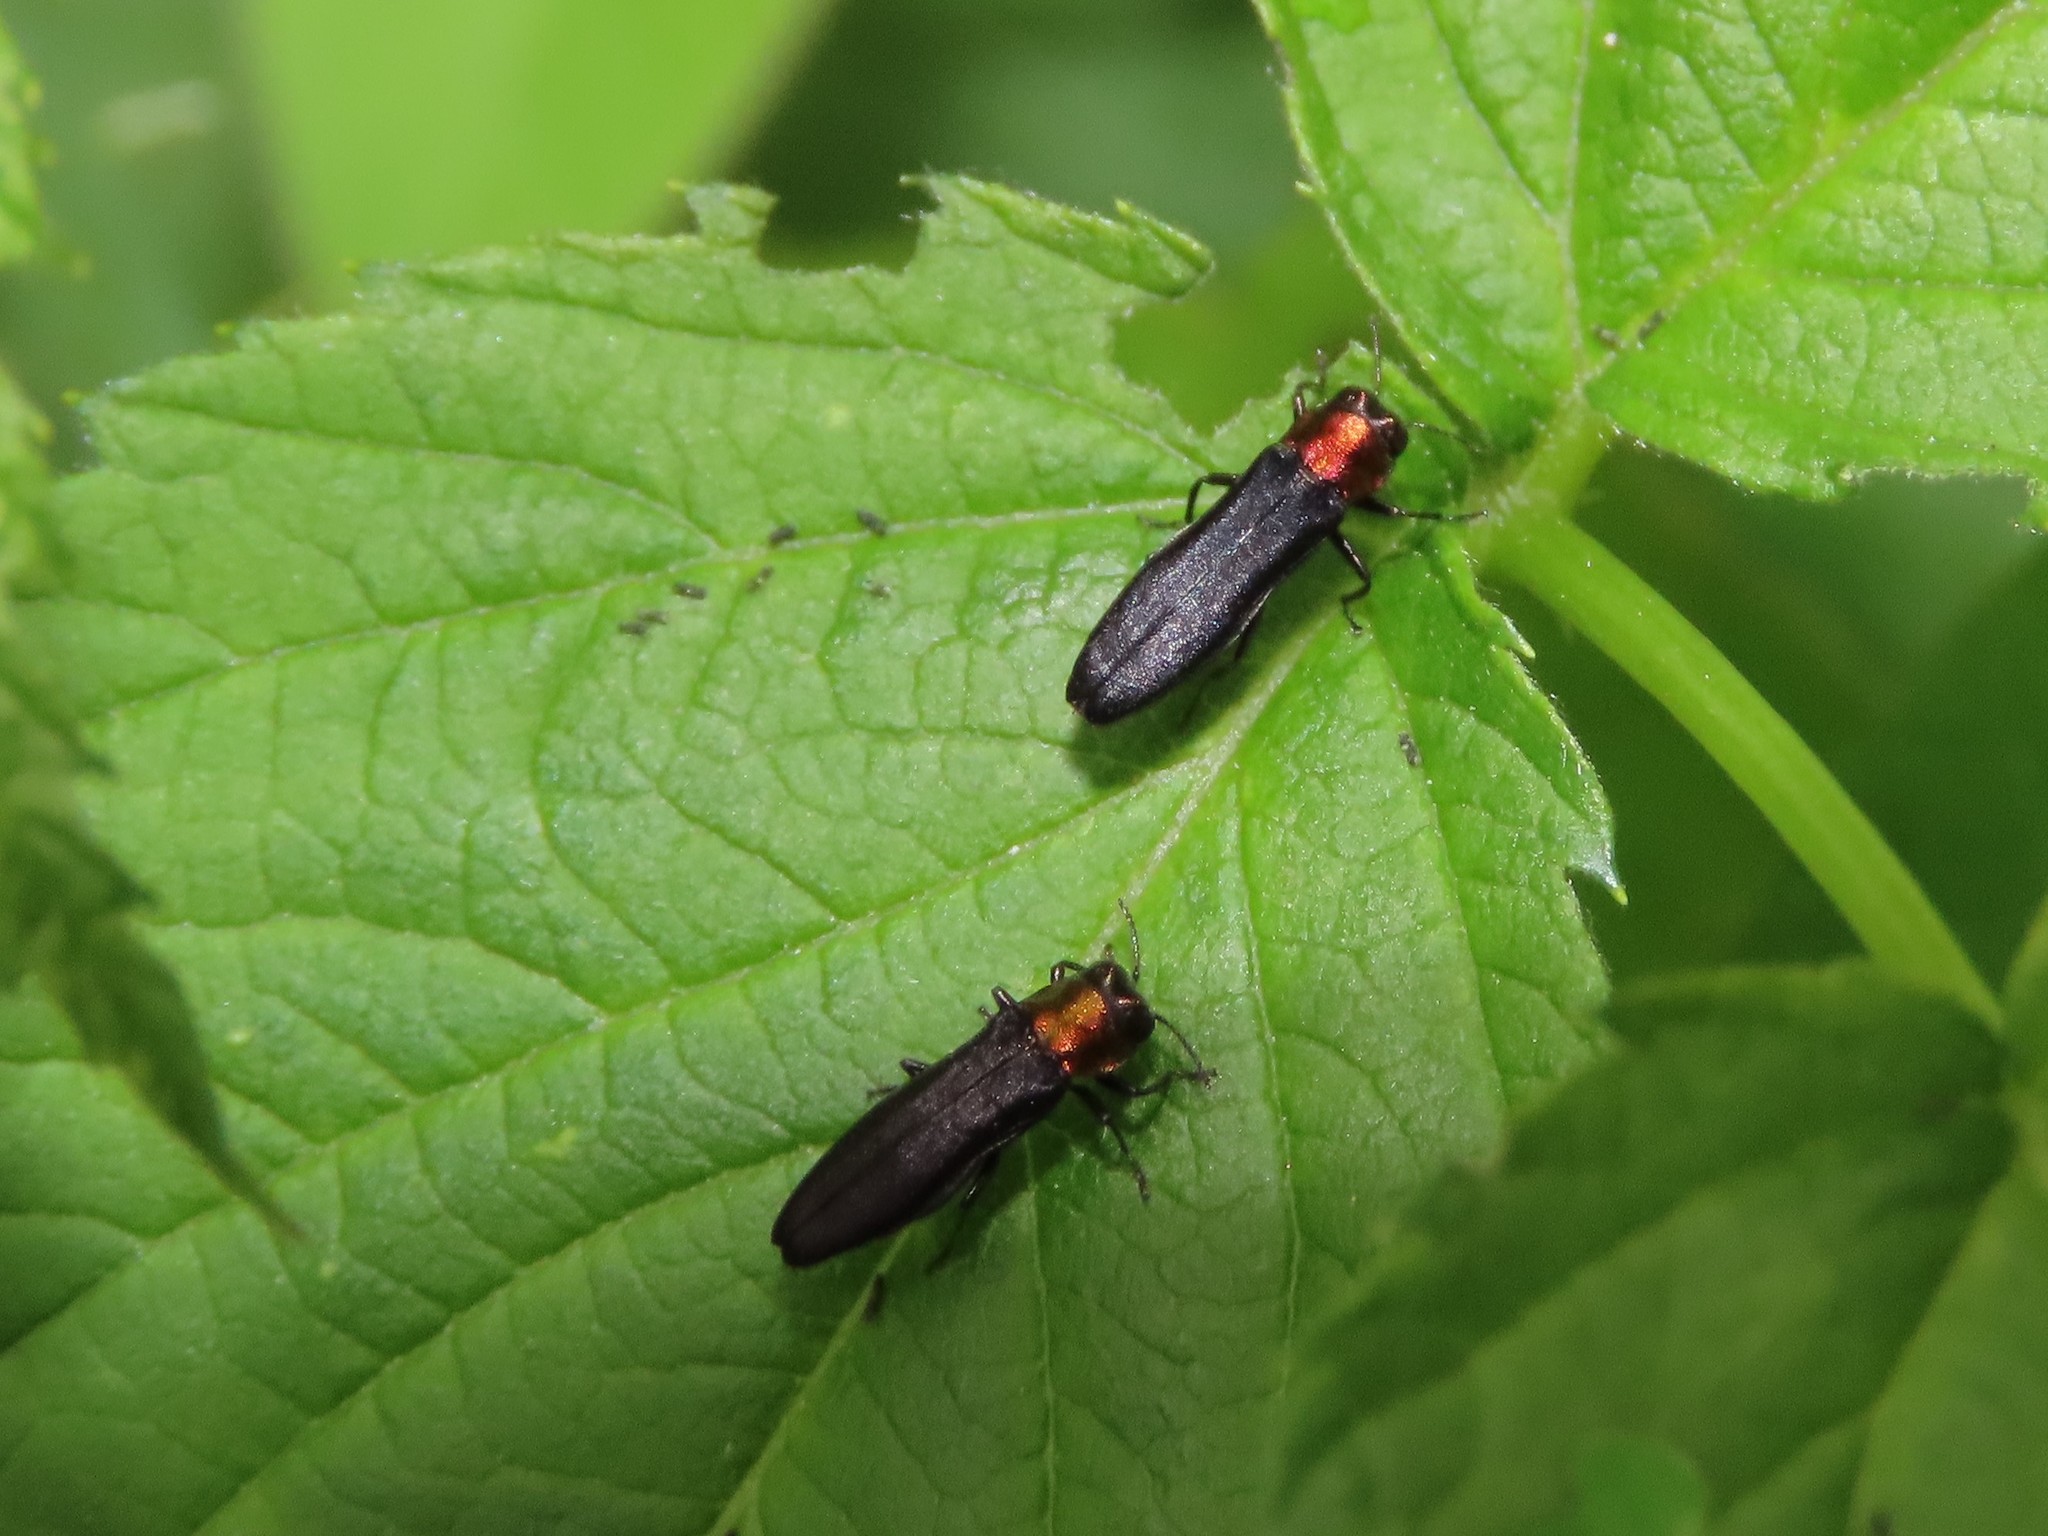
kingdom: Animalia
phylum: Arthropoda
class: Insecta
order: Coleoptera
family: Buprestidae
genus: Agrilus
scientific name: Agrilus ruficollis
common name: Red-necked cane borer beetle
